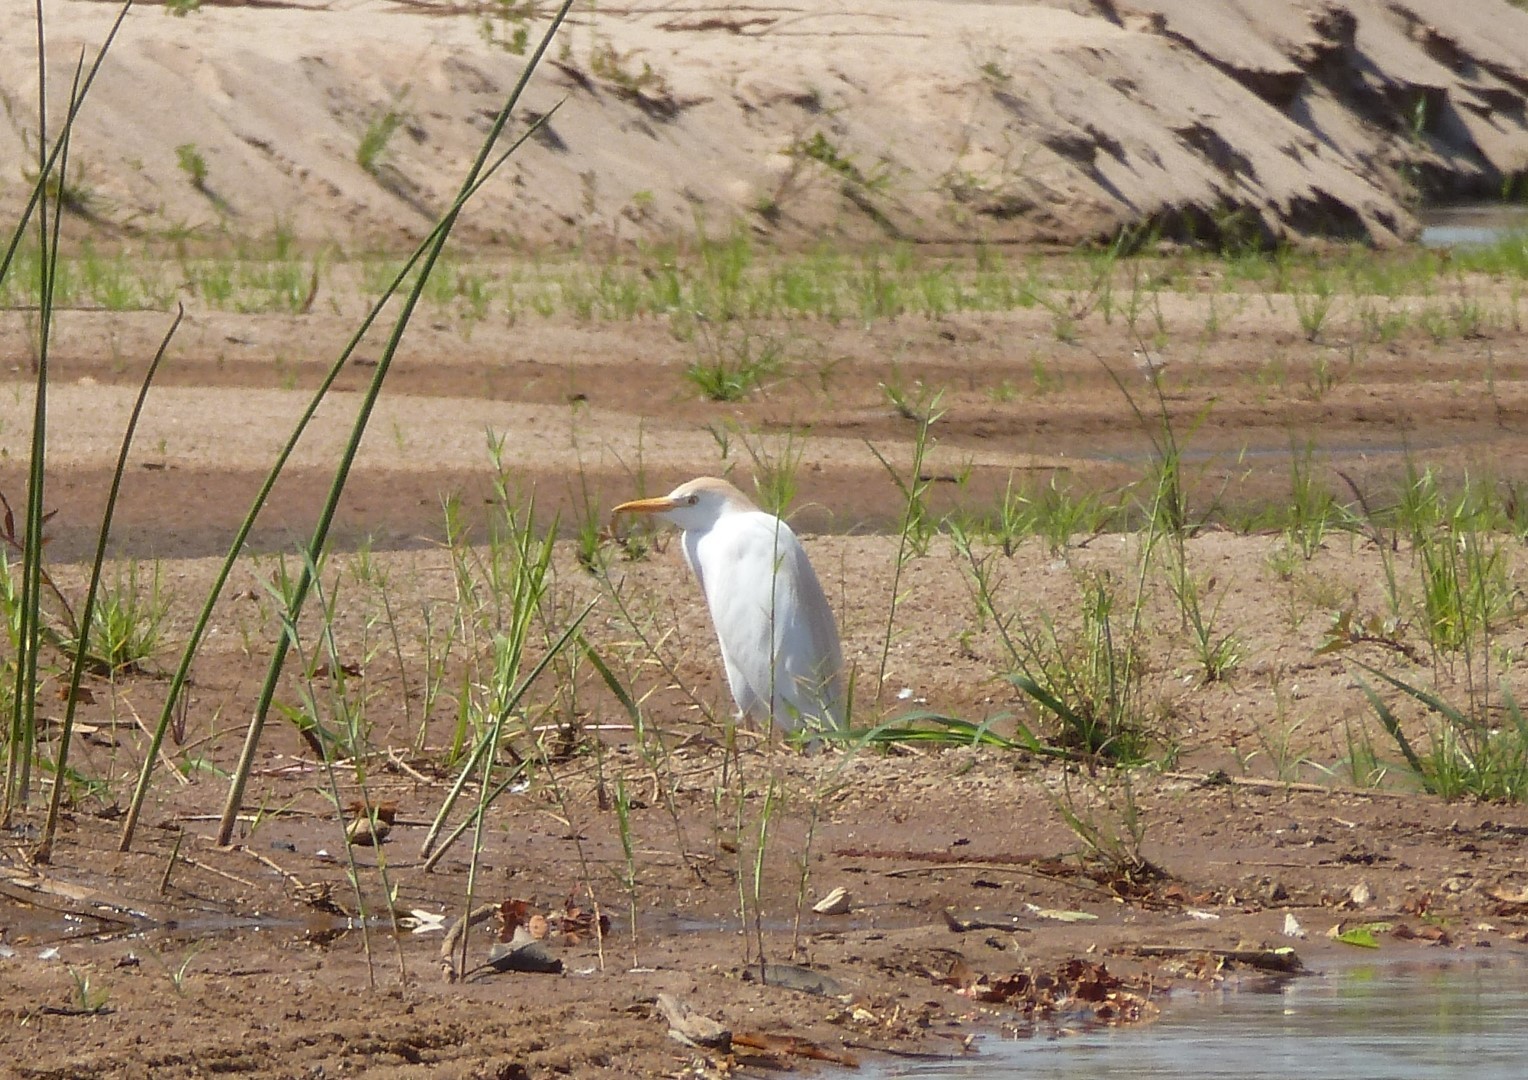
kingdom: Animalia
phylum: Chordata
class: Aves
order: Pelecaniformes
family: Ardeidae
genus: Bubulcus
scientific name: Bubulcus ibis
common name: Cattle egret
